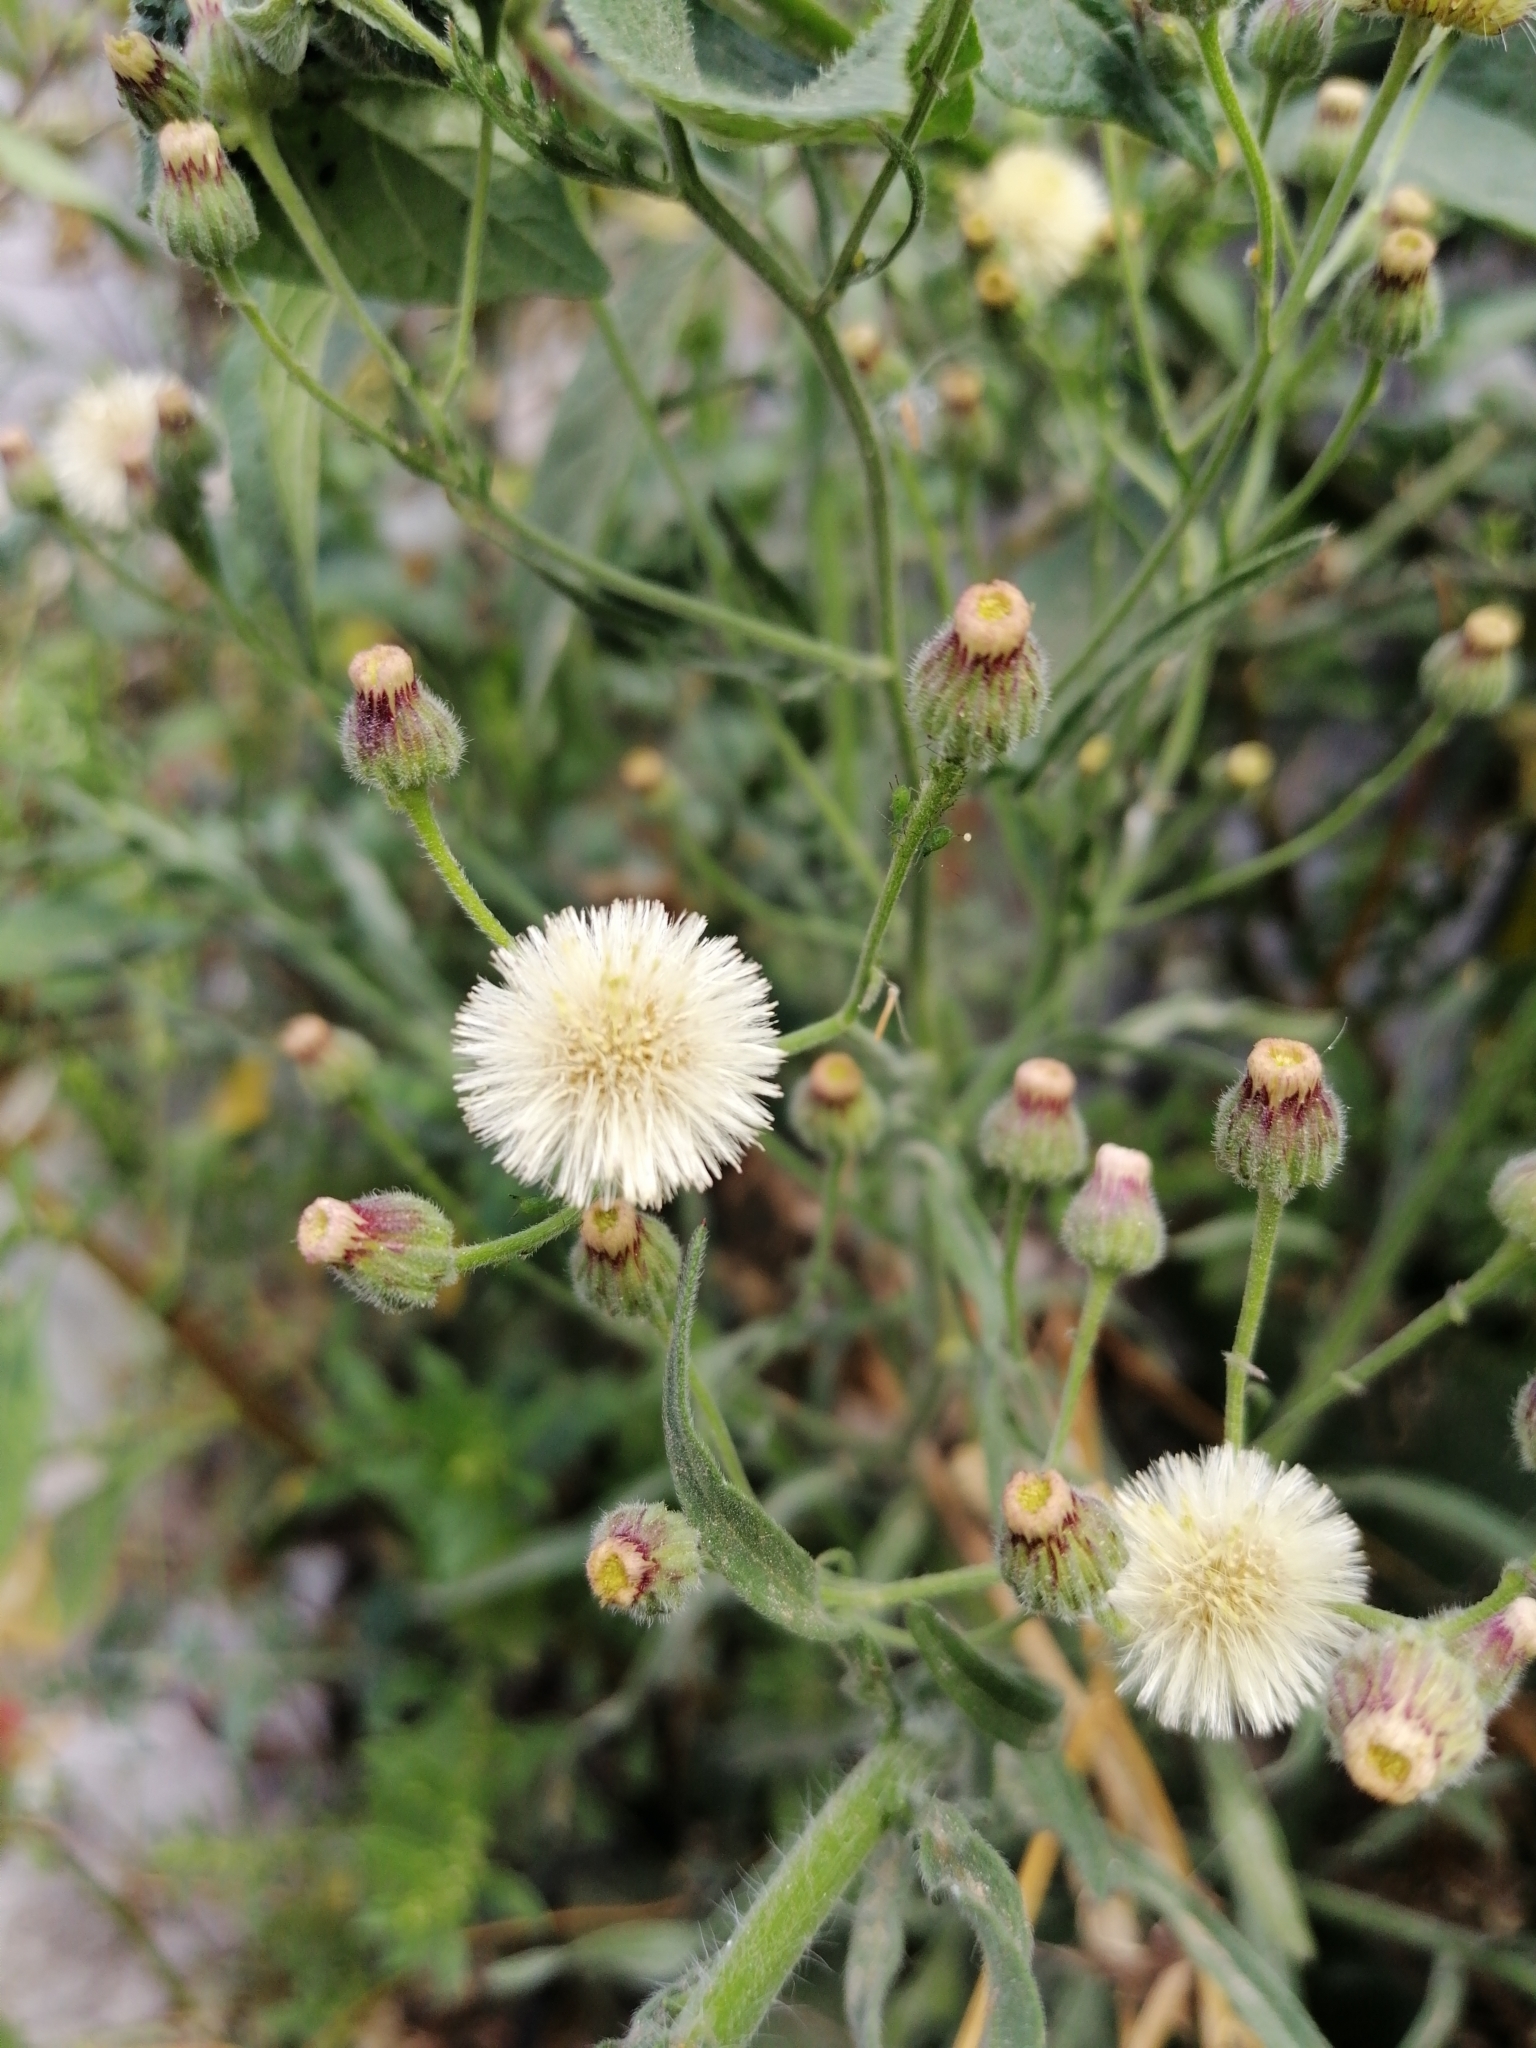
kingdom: Plantae
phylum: Tracheophyta
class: Magnoliopsida
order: Asterales
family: Asteraceae
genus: Erigeron
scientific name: Erigeron bonariensis
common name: Argentine fleabane
